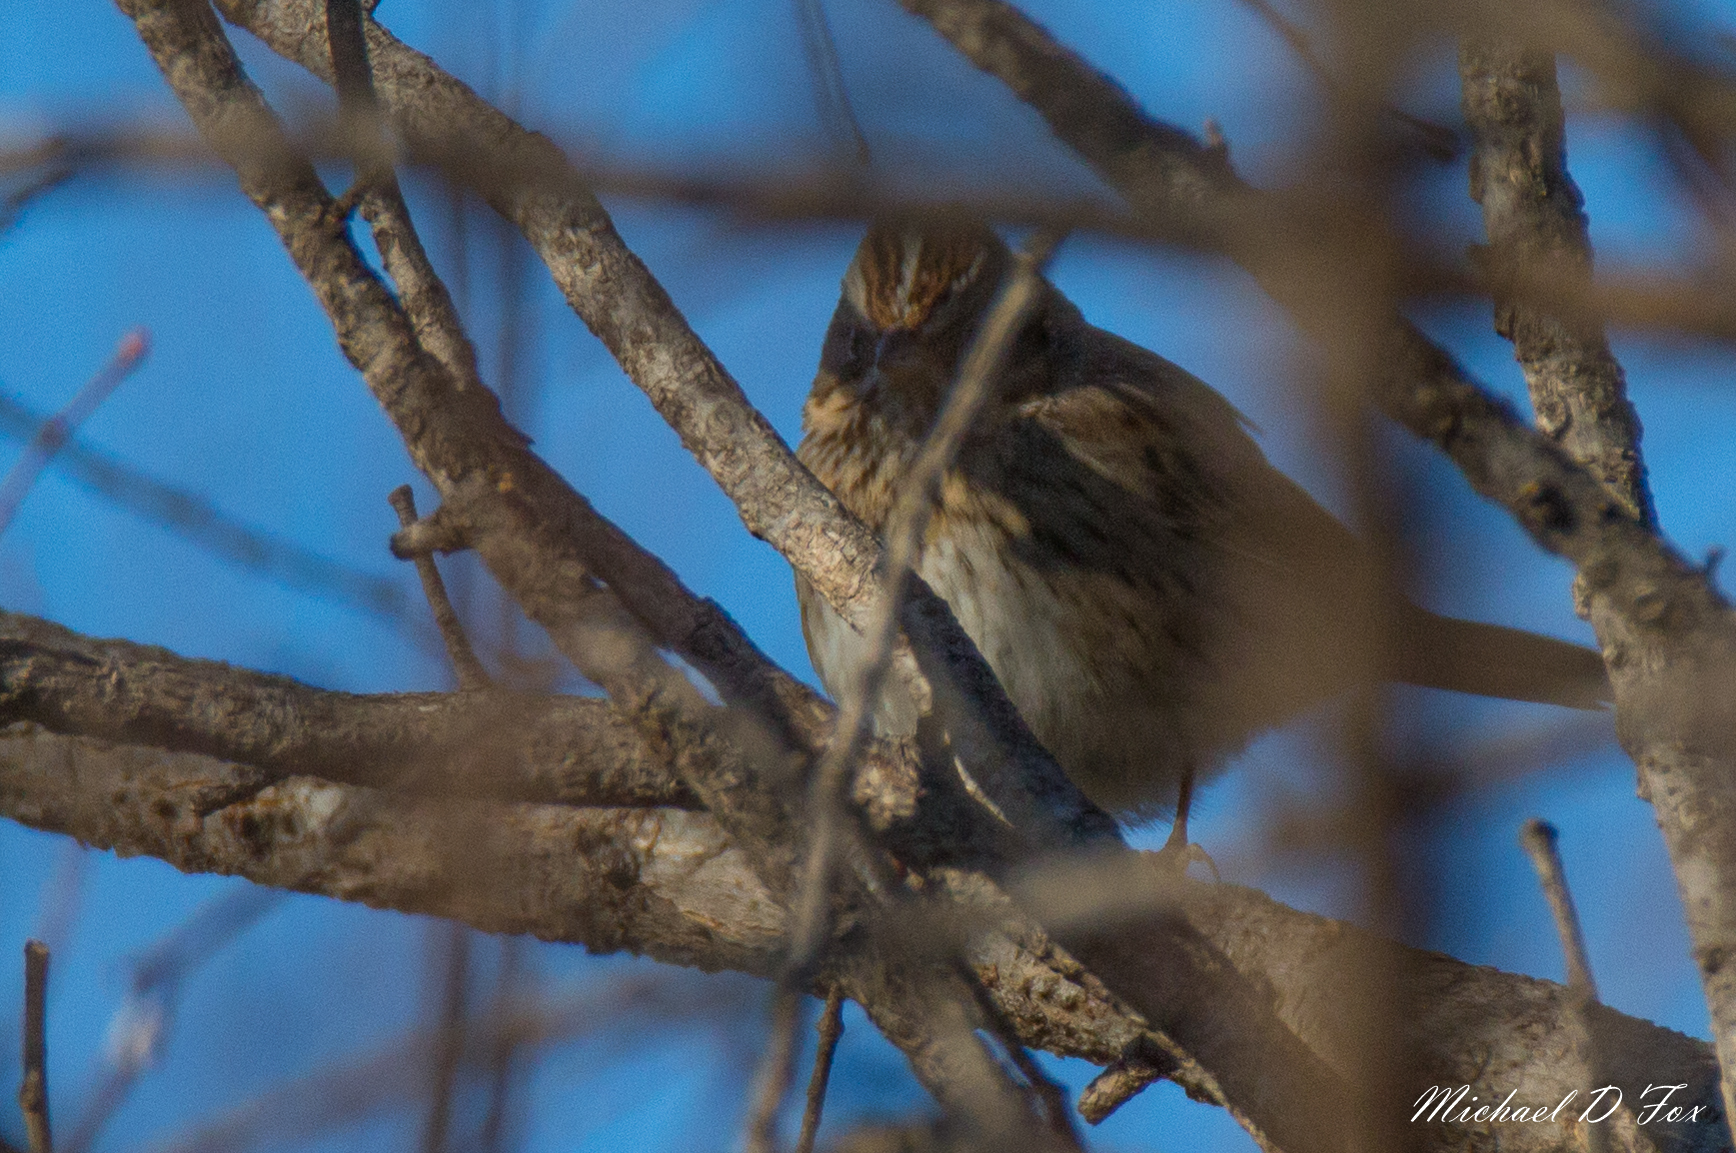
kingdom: Animalia
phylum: Chordata
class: Aves
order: Passeriformes
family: Passerellidae
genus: Melospiza
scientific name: Melospiza lincolnii
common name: Lincoln's sparrow
